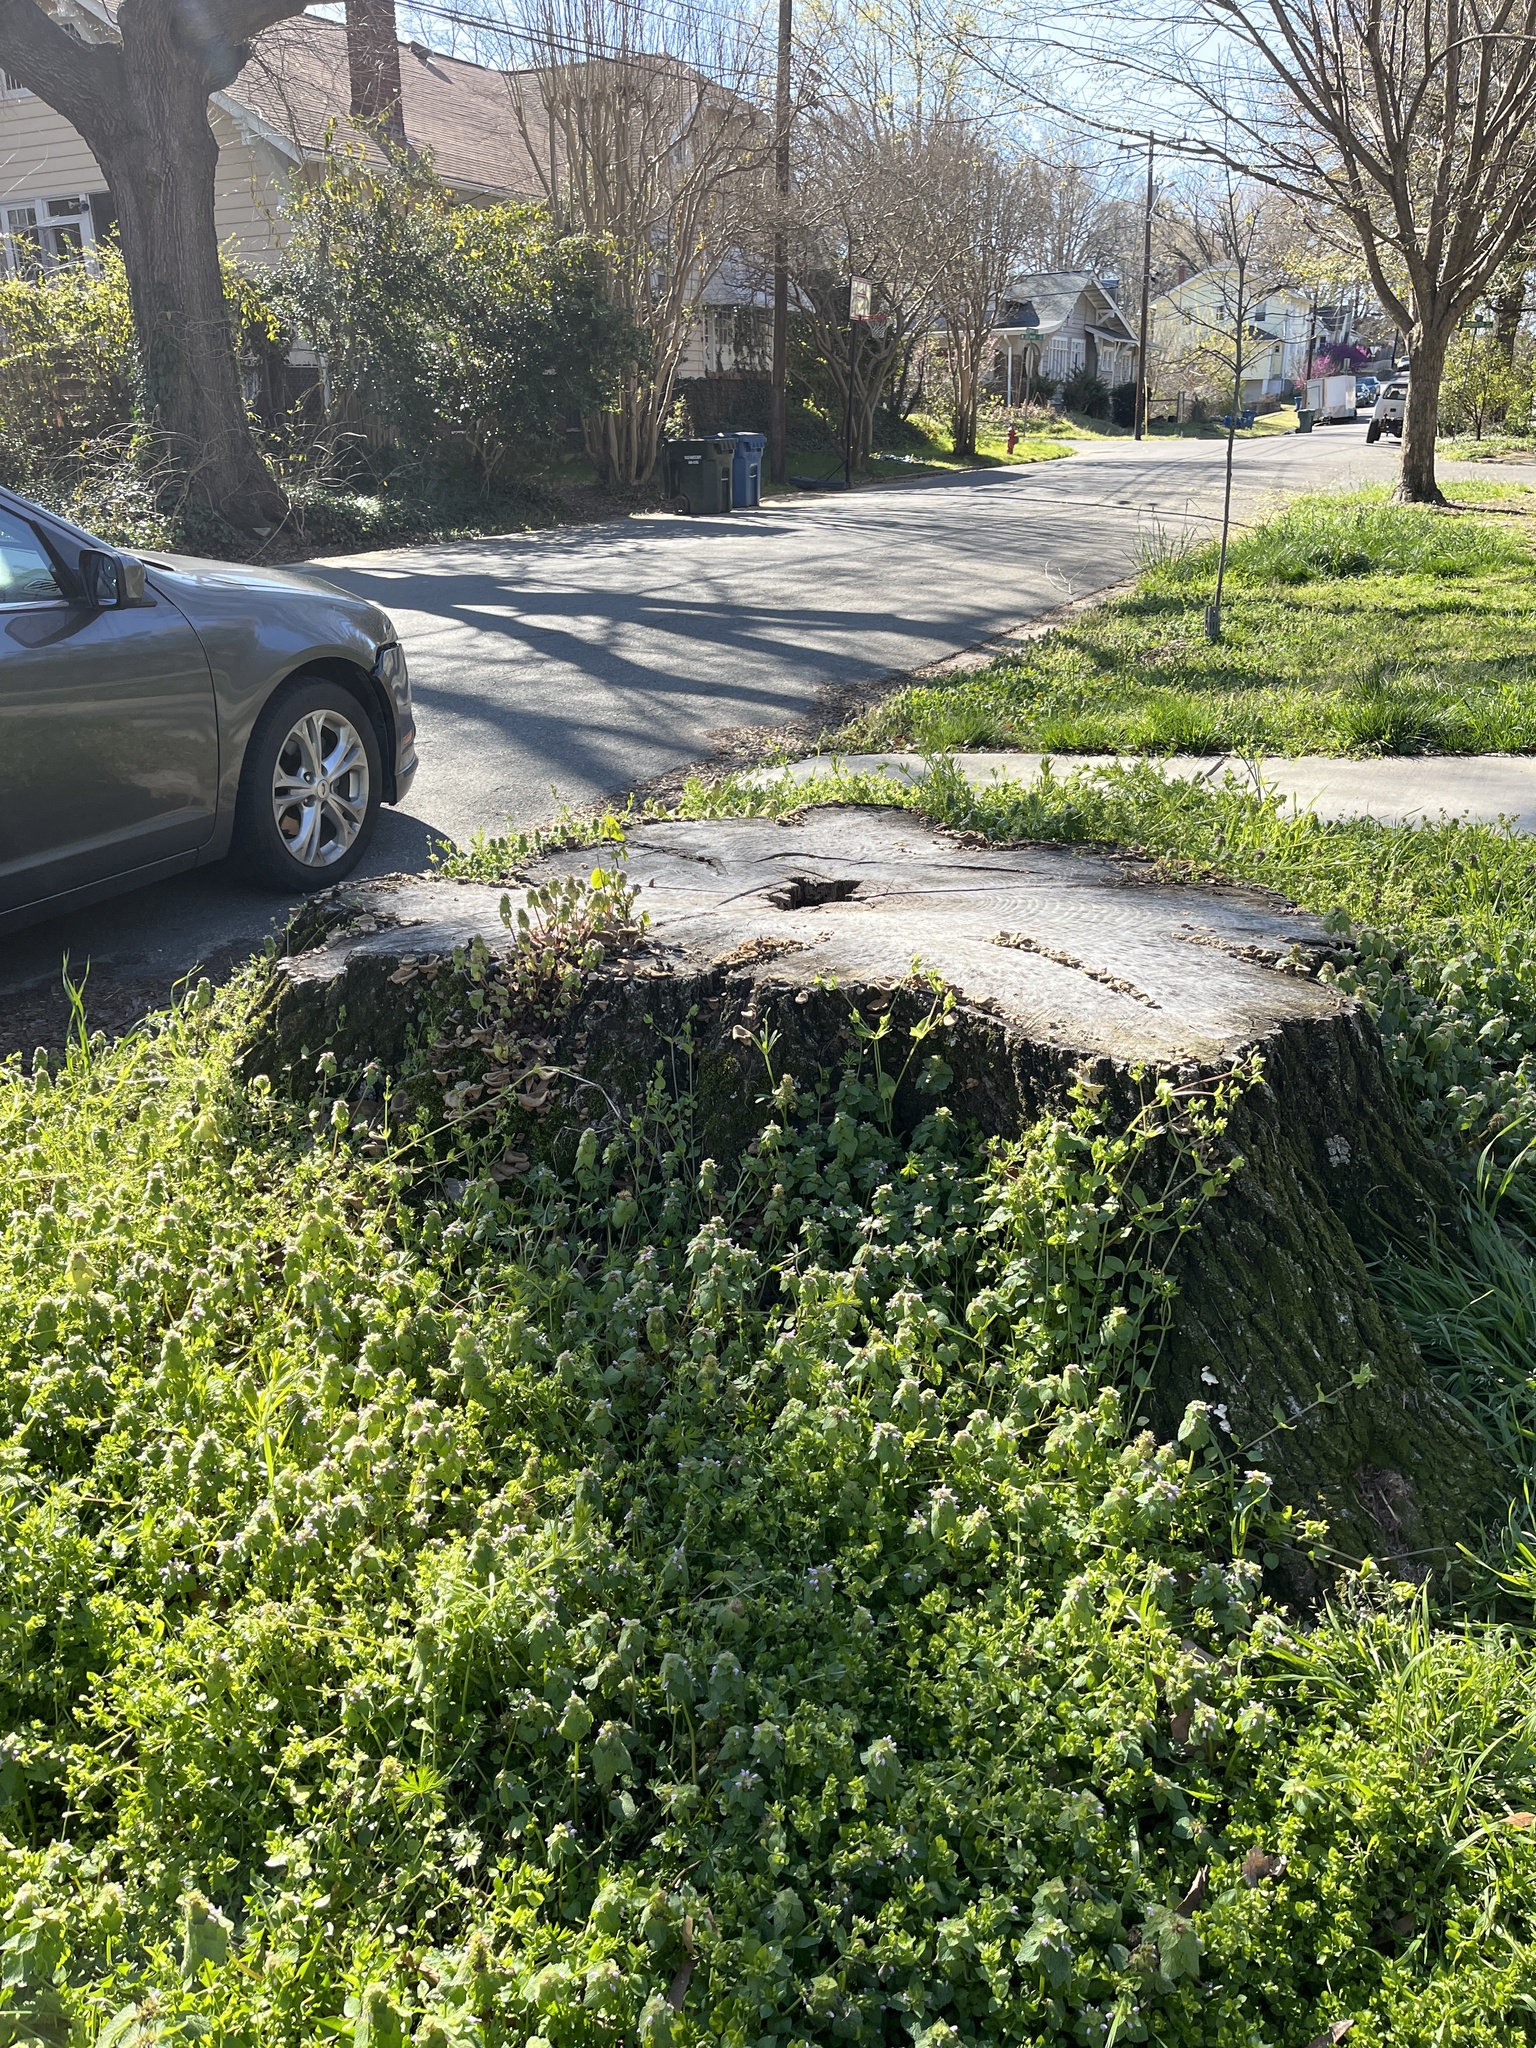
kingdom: Plantae
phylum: Tracheophyta
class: Magnoliopsida
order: Lamiales
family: Lamiaceae
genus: Lamium
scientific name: Lamium purpureum
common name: Red dead-nettle
